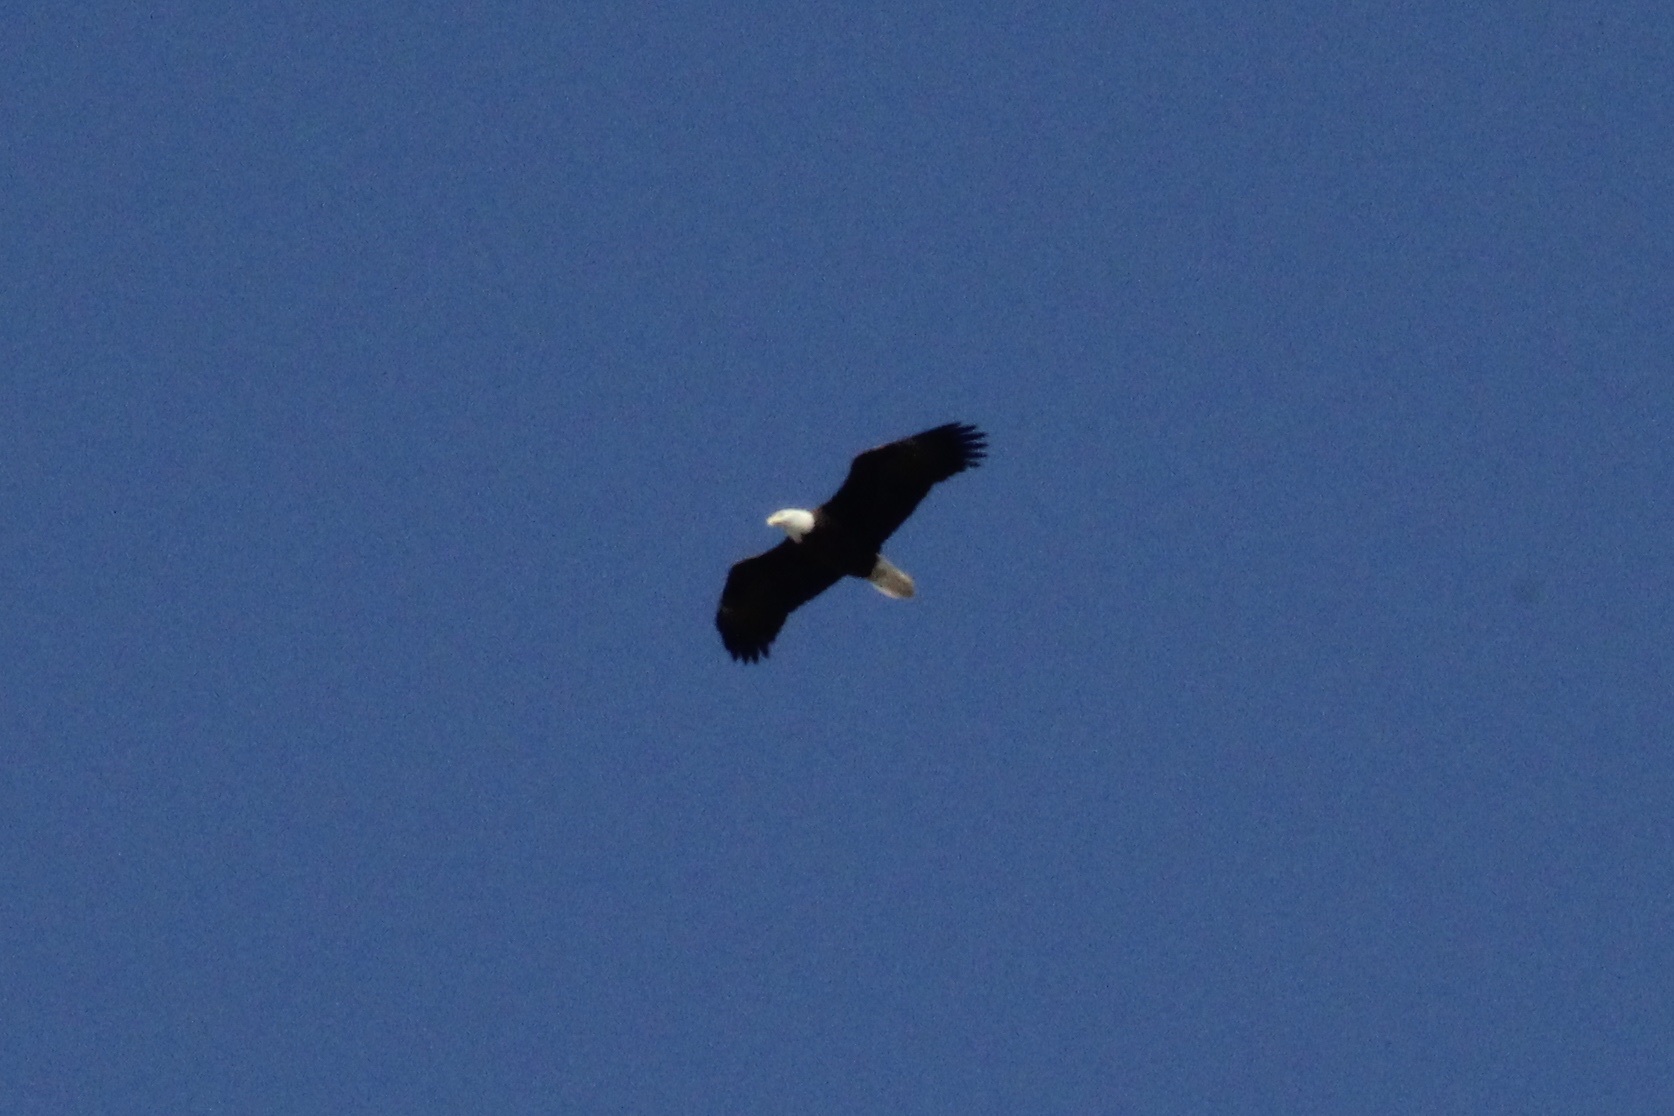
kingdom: Animalia
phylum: Chordata
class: Aves
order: Accipitriformes
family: Accipitridae
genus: Haliaeetus
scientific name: Haliaeetus leucocephalus
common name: Bald eagle
